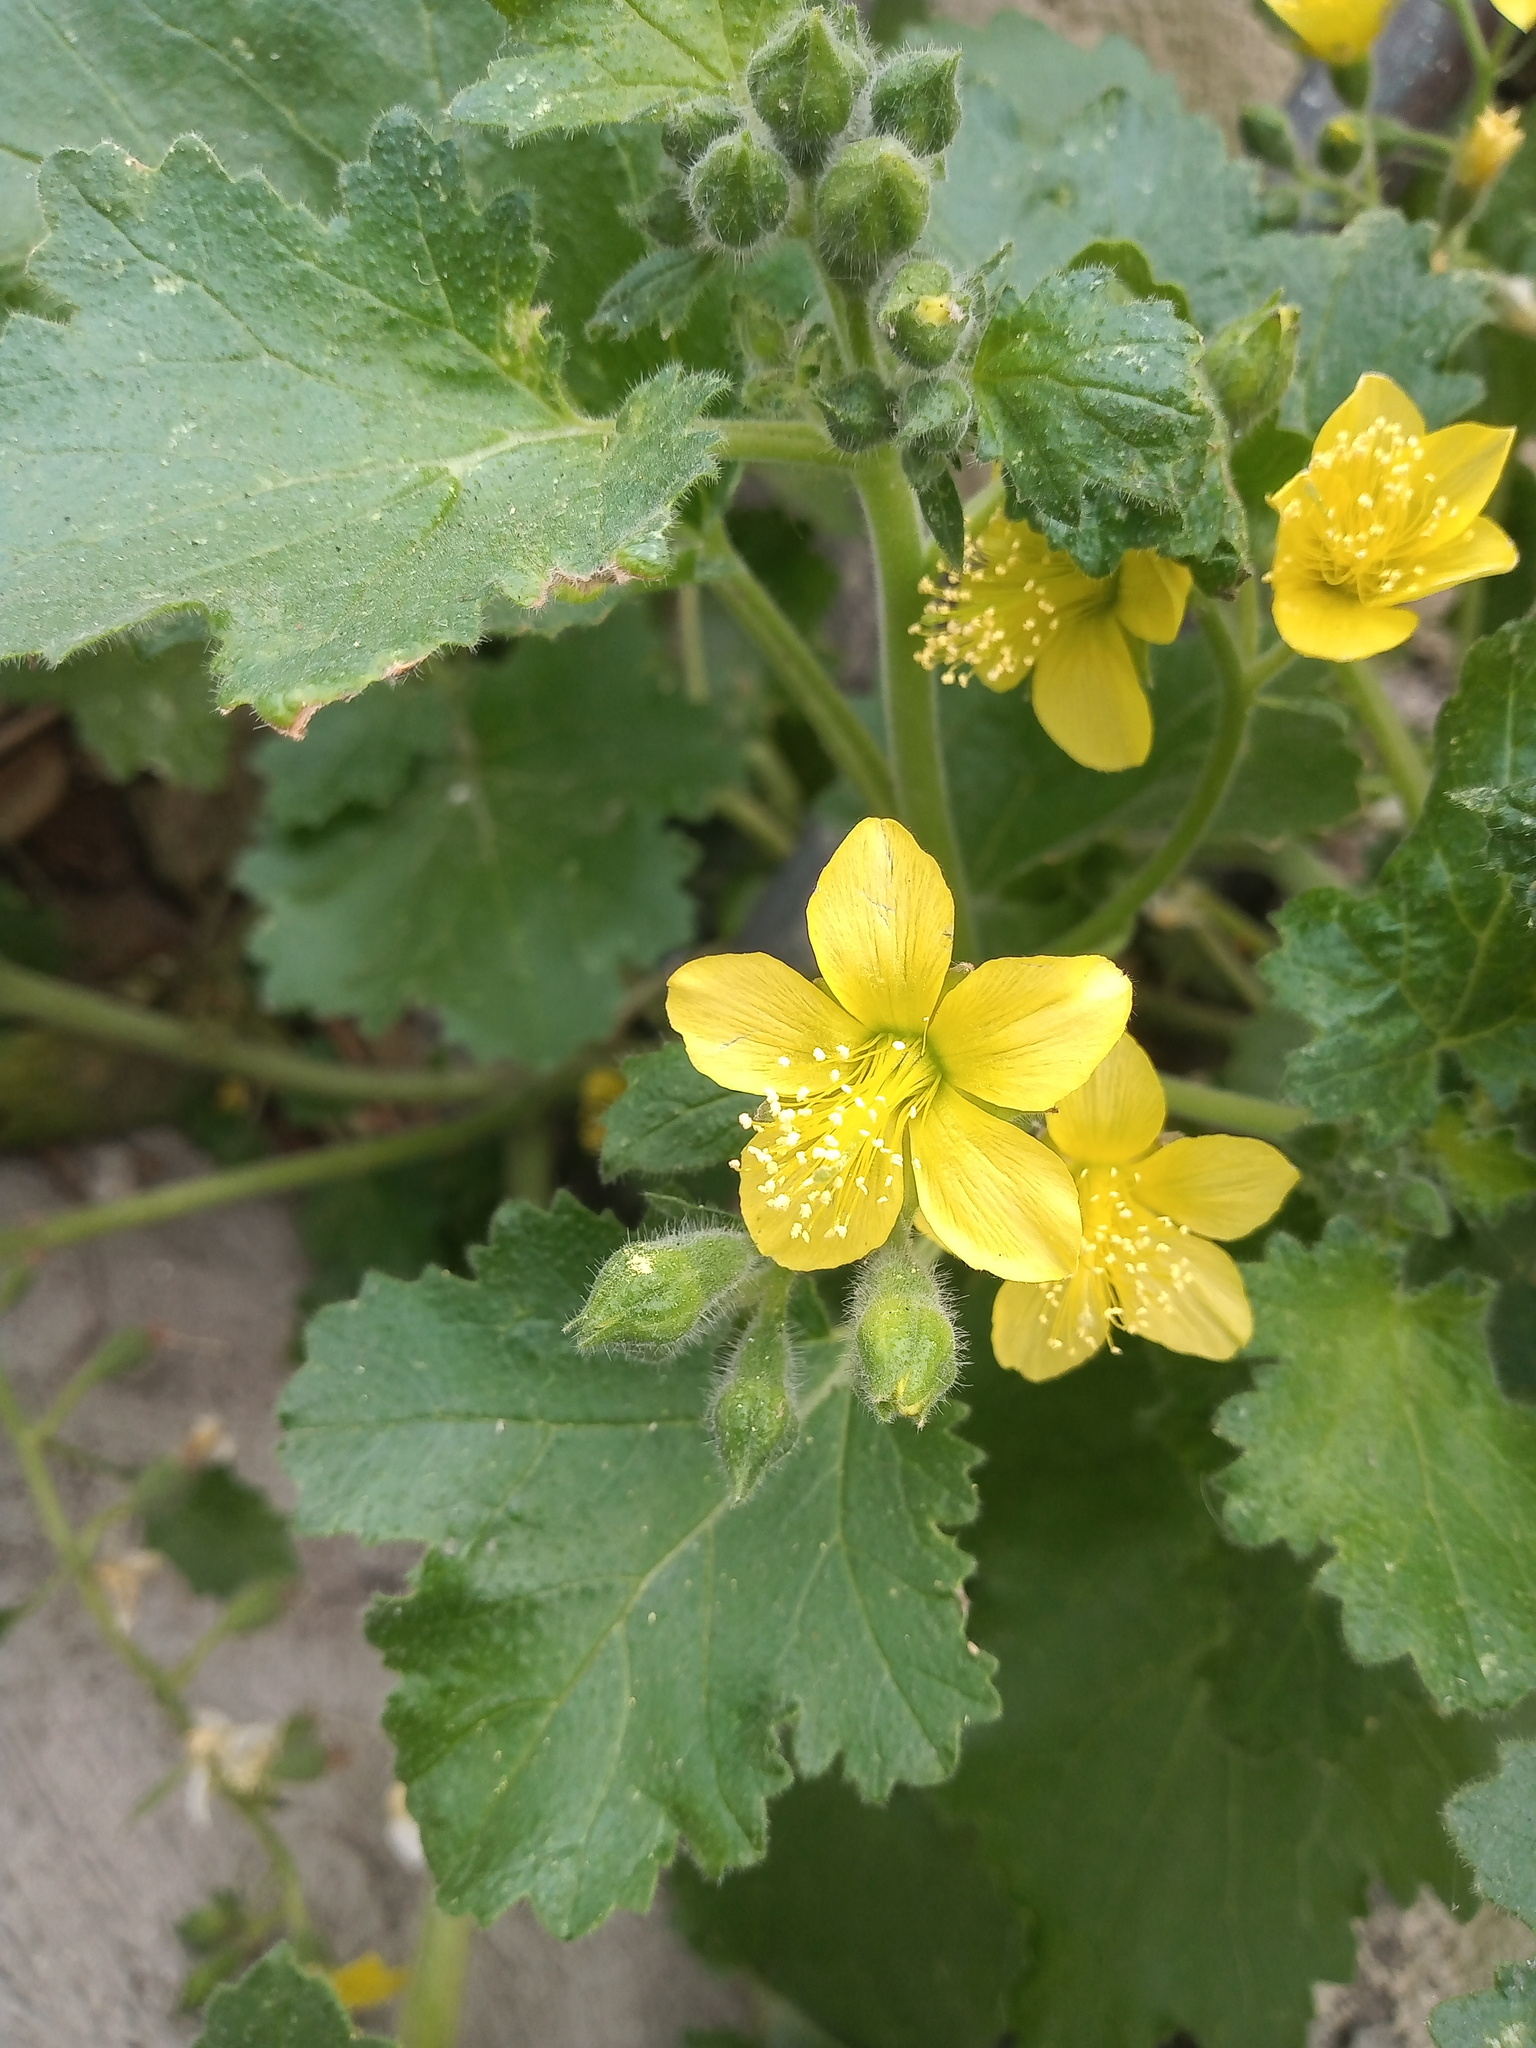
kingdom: Plantae
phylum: Tracheophyta
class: Magnoliopsida
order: Cornales
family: Loasaceae
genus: Eucnide
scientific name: Eucnide lobata
